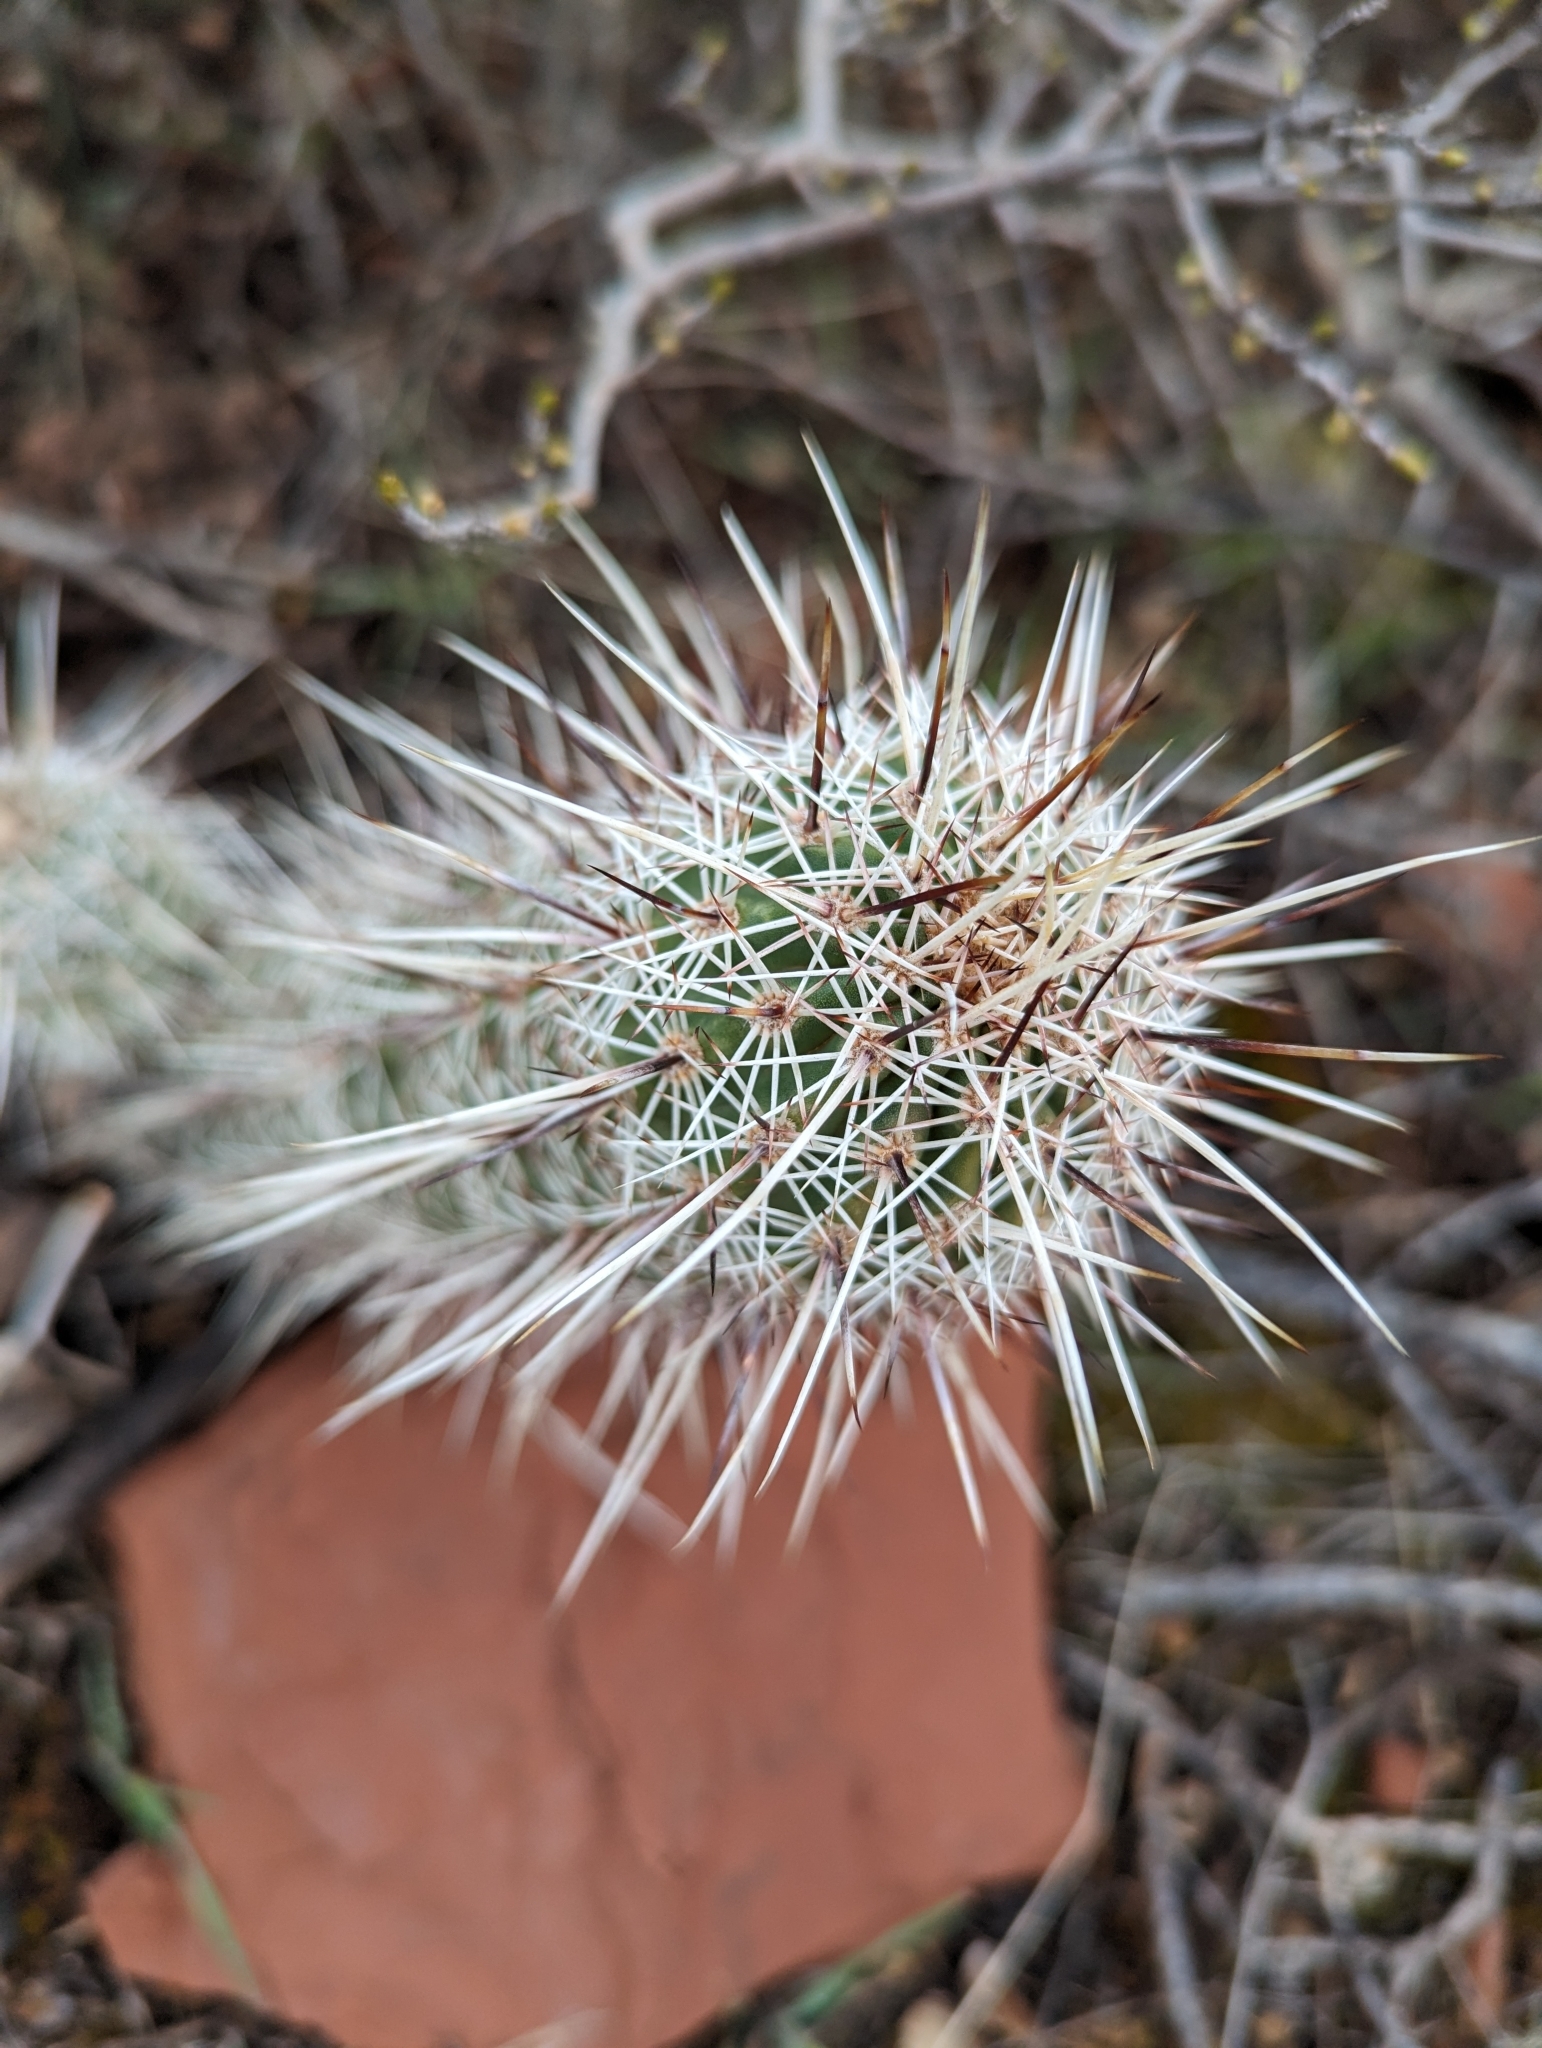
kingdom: Plantae
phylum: Tracheophyta
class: Magnoliopsida
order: Caryophyllales
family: Cactaceae
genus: Echinocereus
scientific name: Echinocereus fasciculatus
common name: Bundle hedgehog
